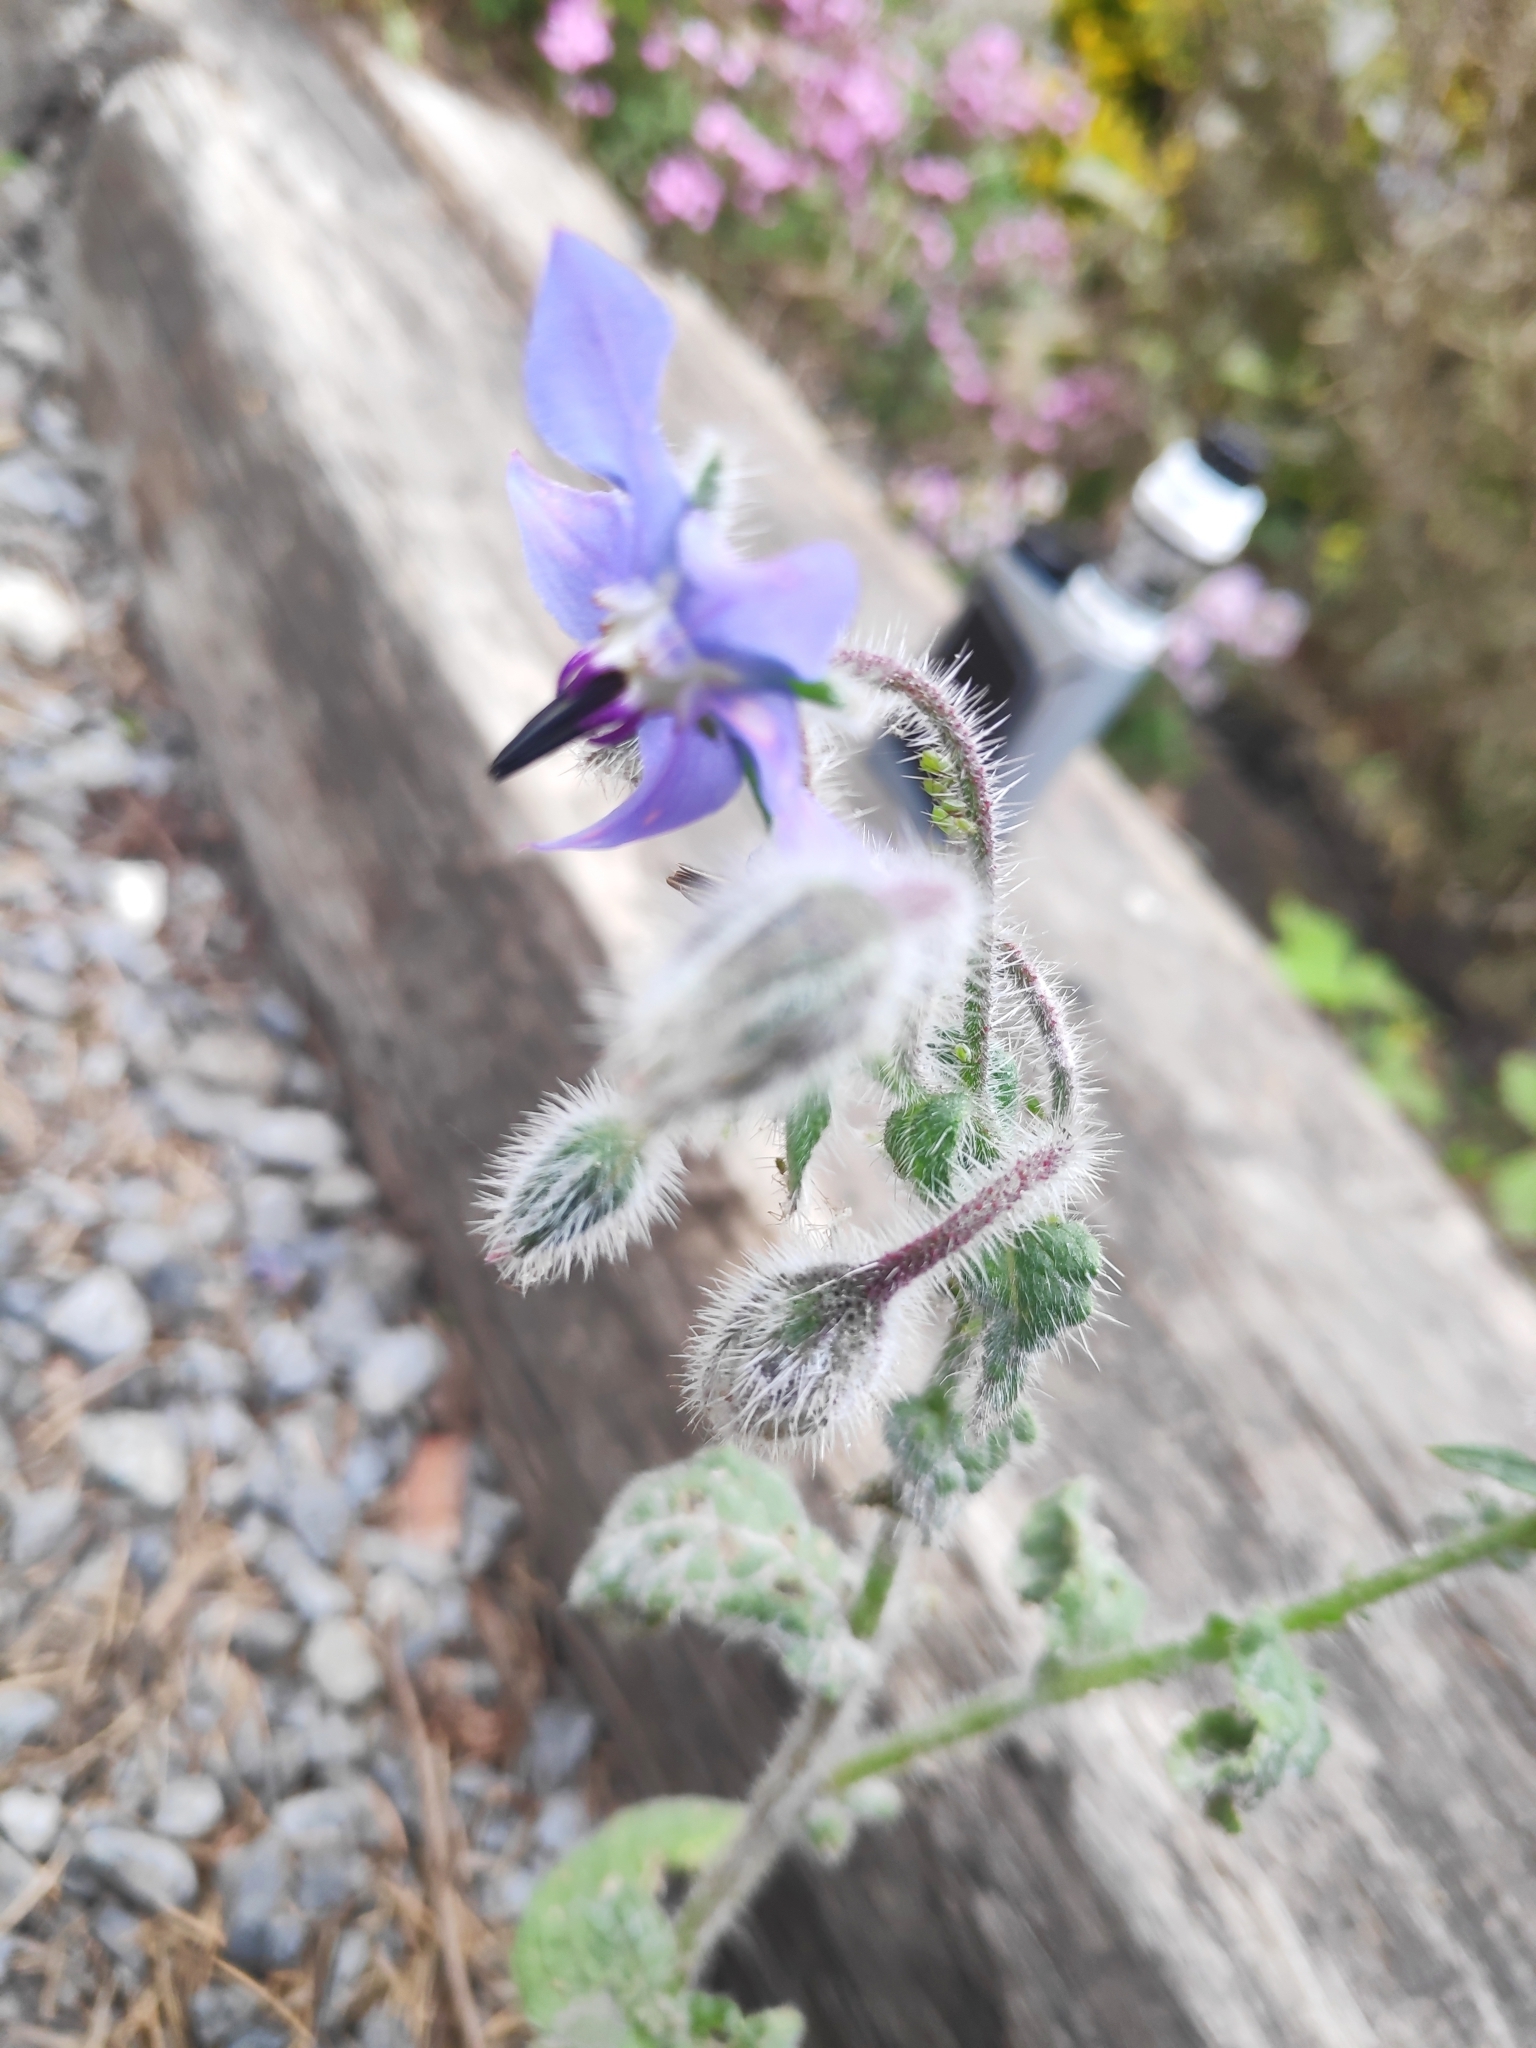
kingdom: Plantae
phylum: Tracheophyta
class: Magnoliopsida
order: Boraginales
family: Boraginaceae
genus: Borago
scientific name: Borago officinalis
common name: Borage
